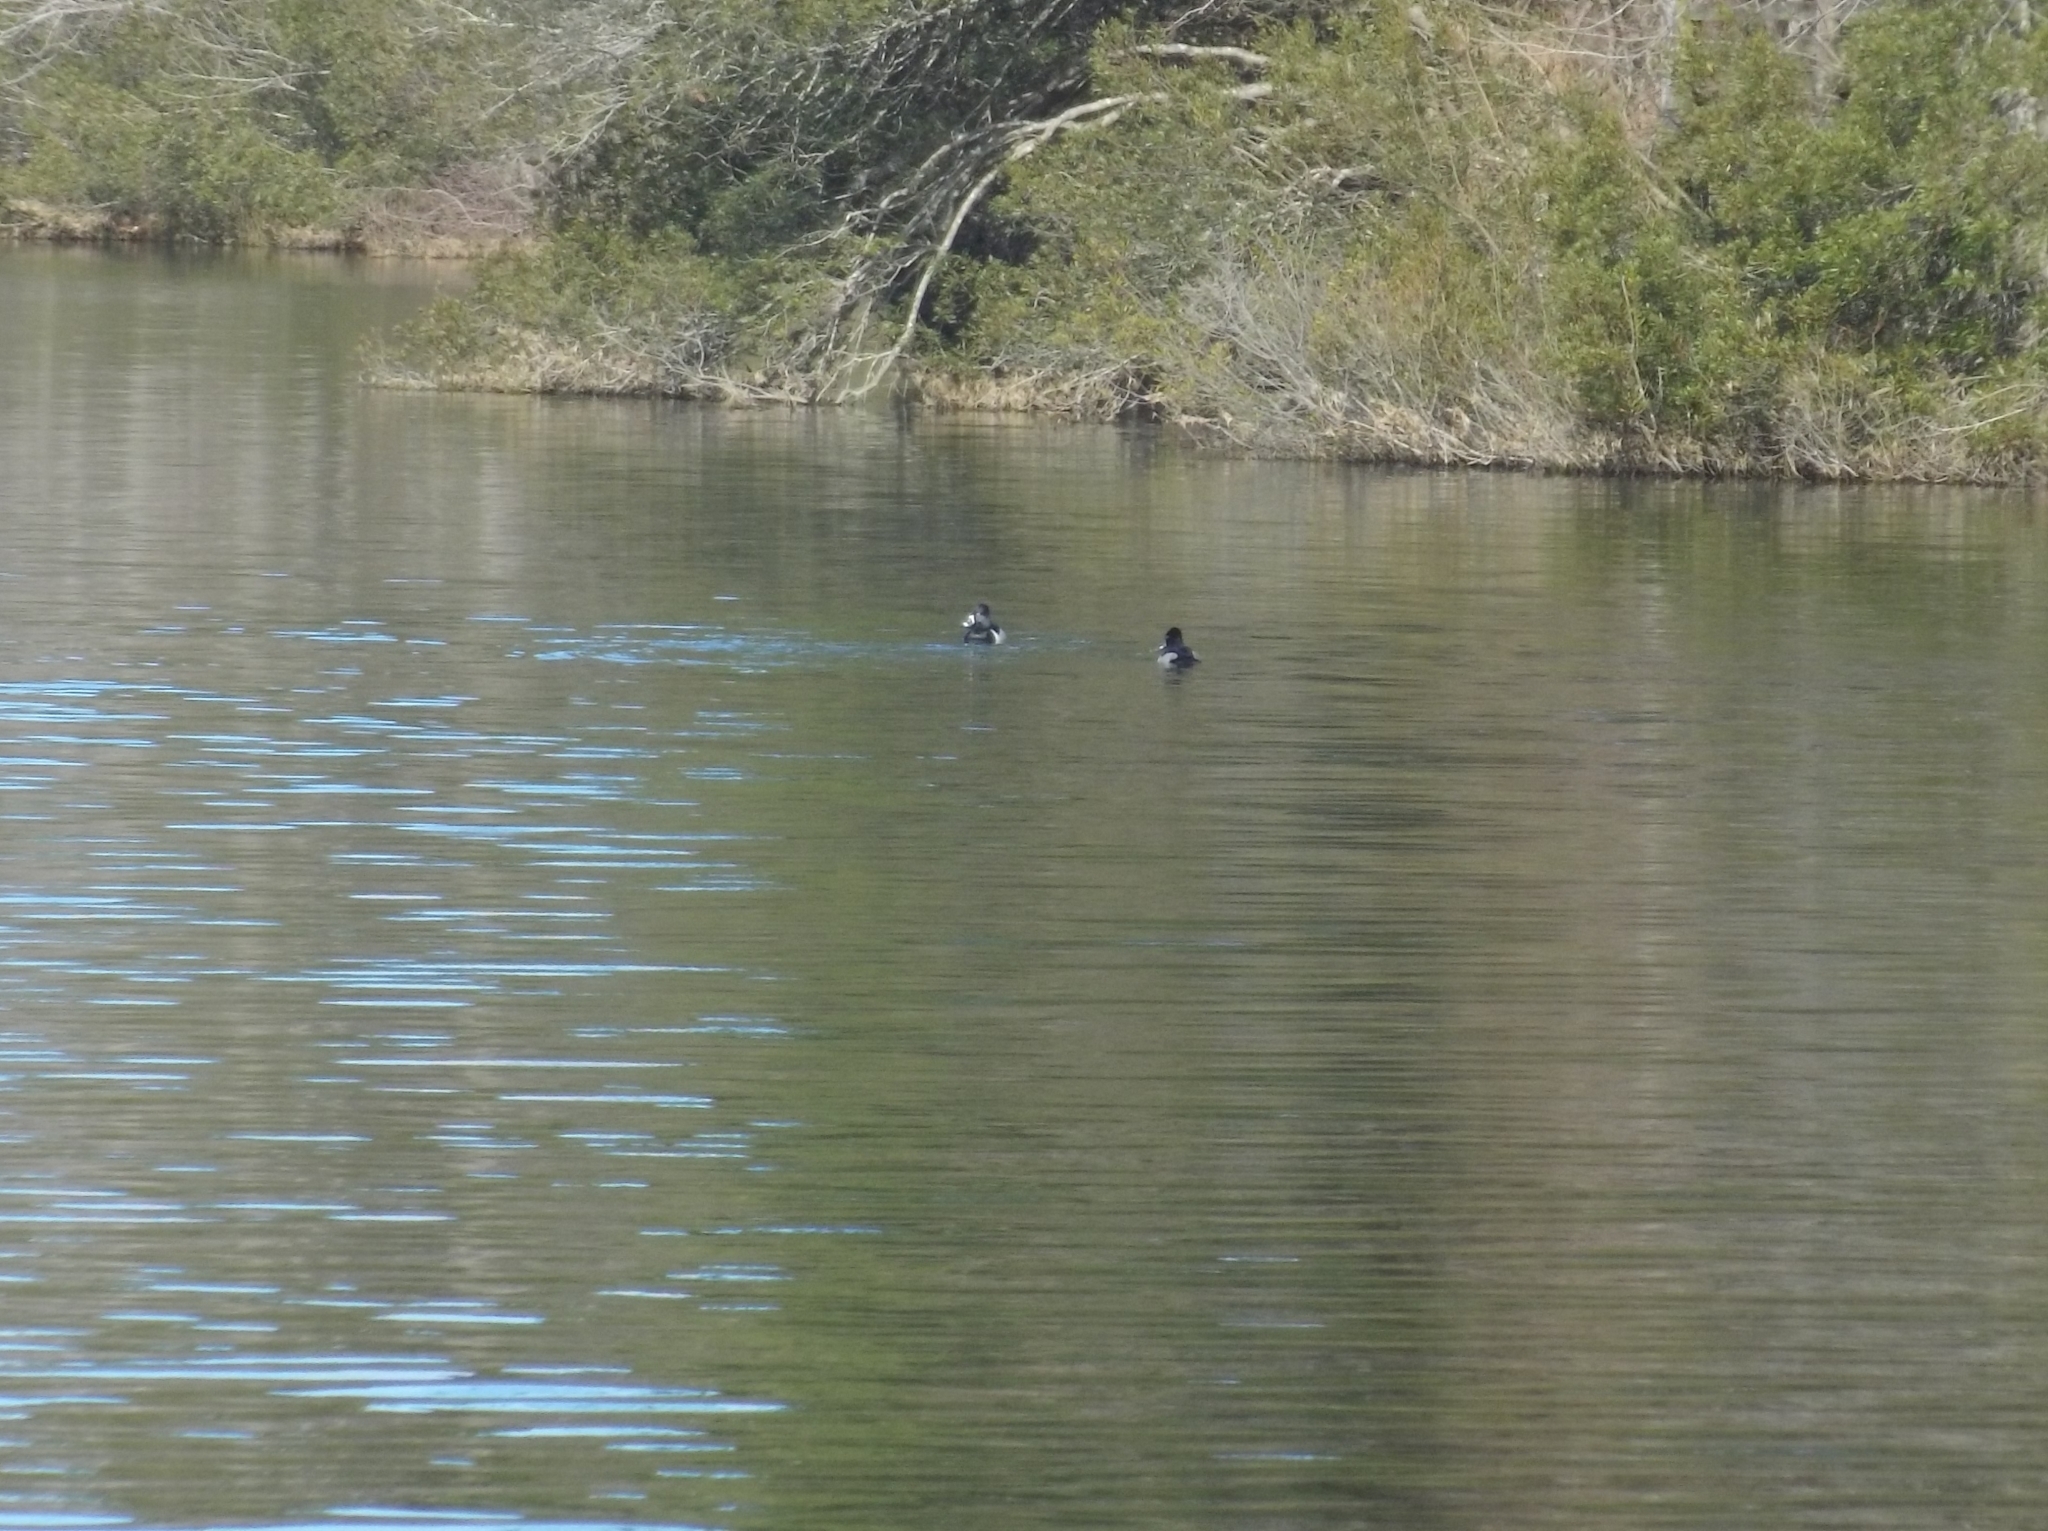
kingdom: Animalia
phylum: Chordata
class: Aves
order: Anseriformes
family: Anatidae
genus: Aythya
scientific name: Aythya collaris
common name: Ring-necked duck
